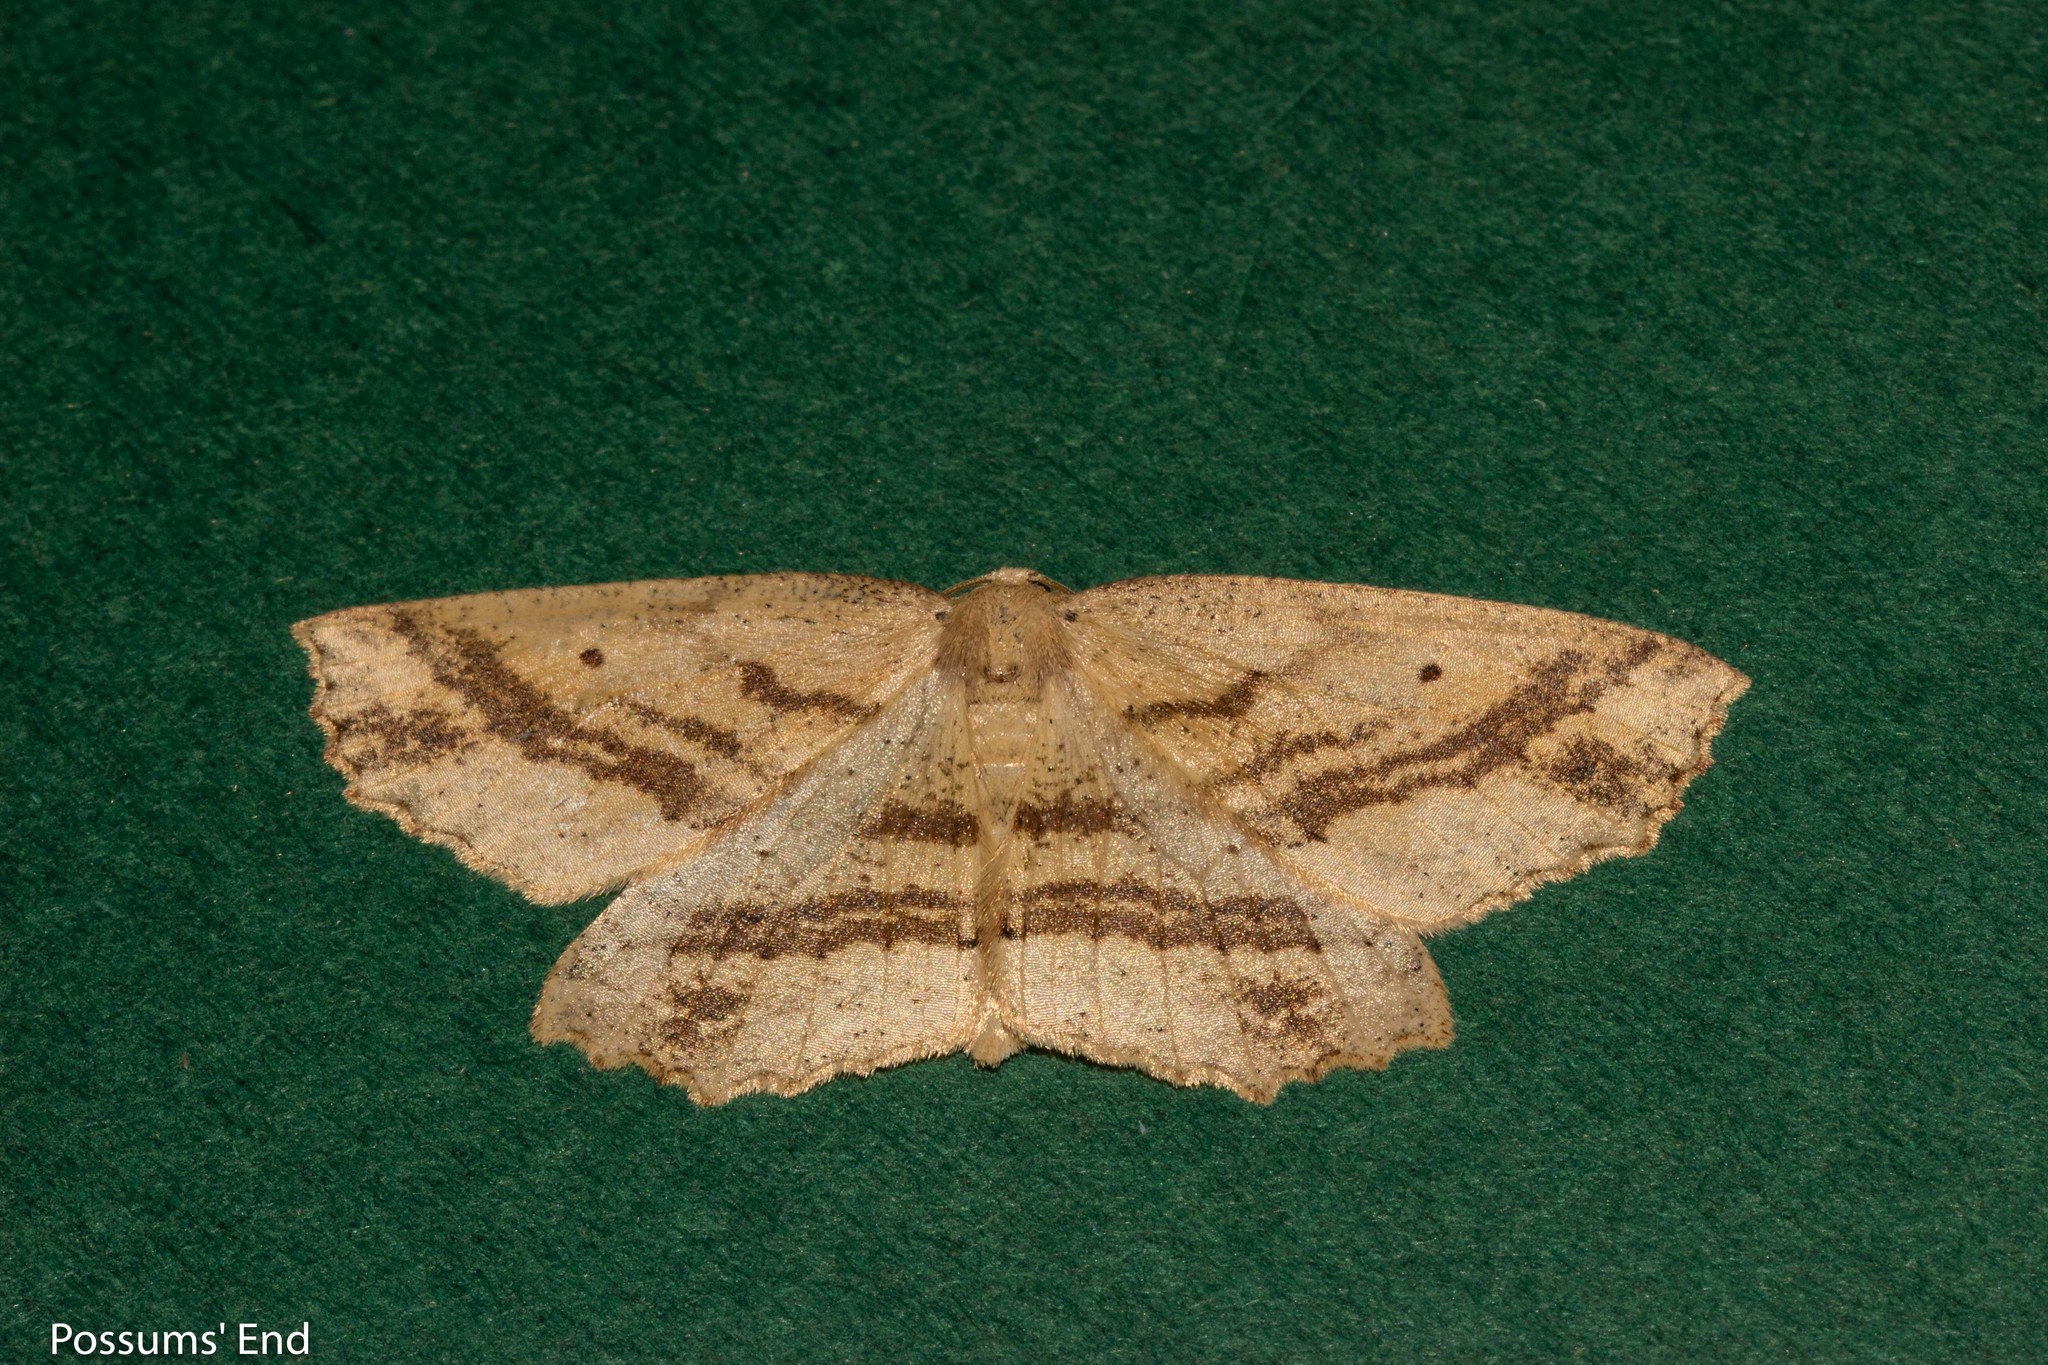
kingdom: Animalia
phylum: Arthropoda
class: Insecta
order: Lepidoptera
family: Geometridae
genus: Xyridacma
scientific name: Xyridacma veronicae
